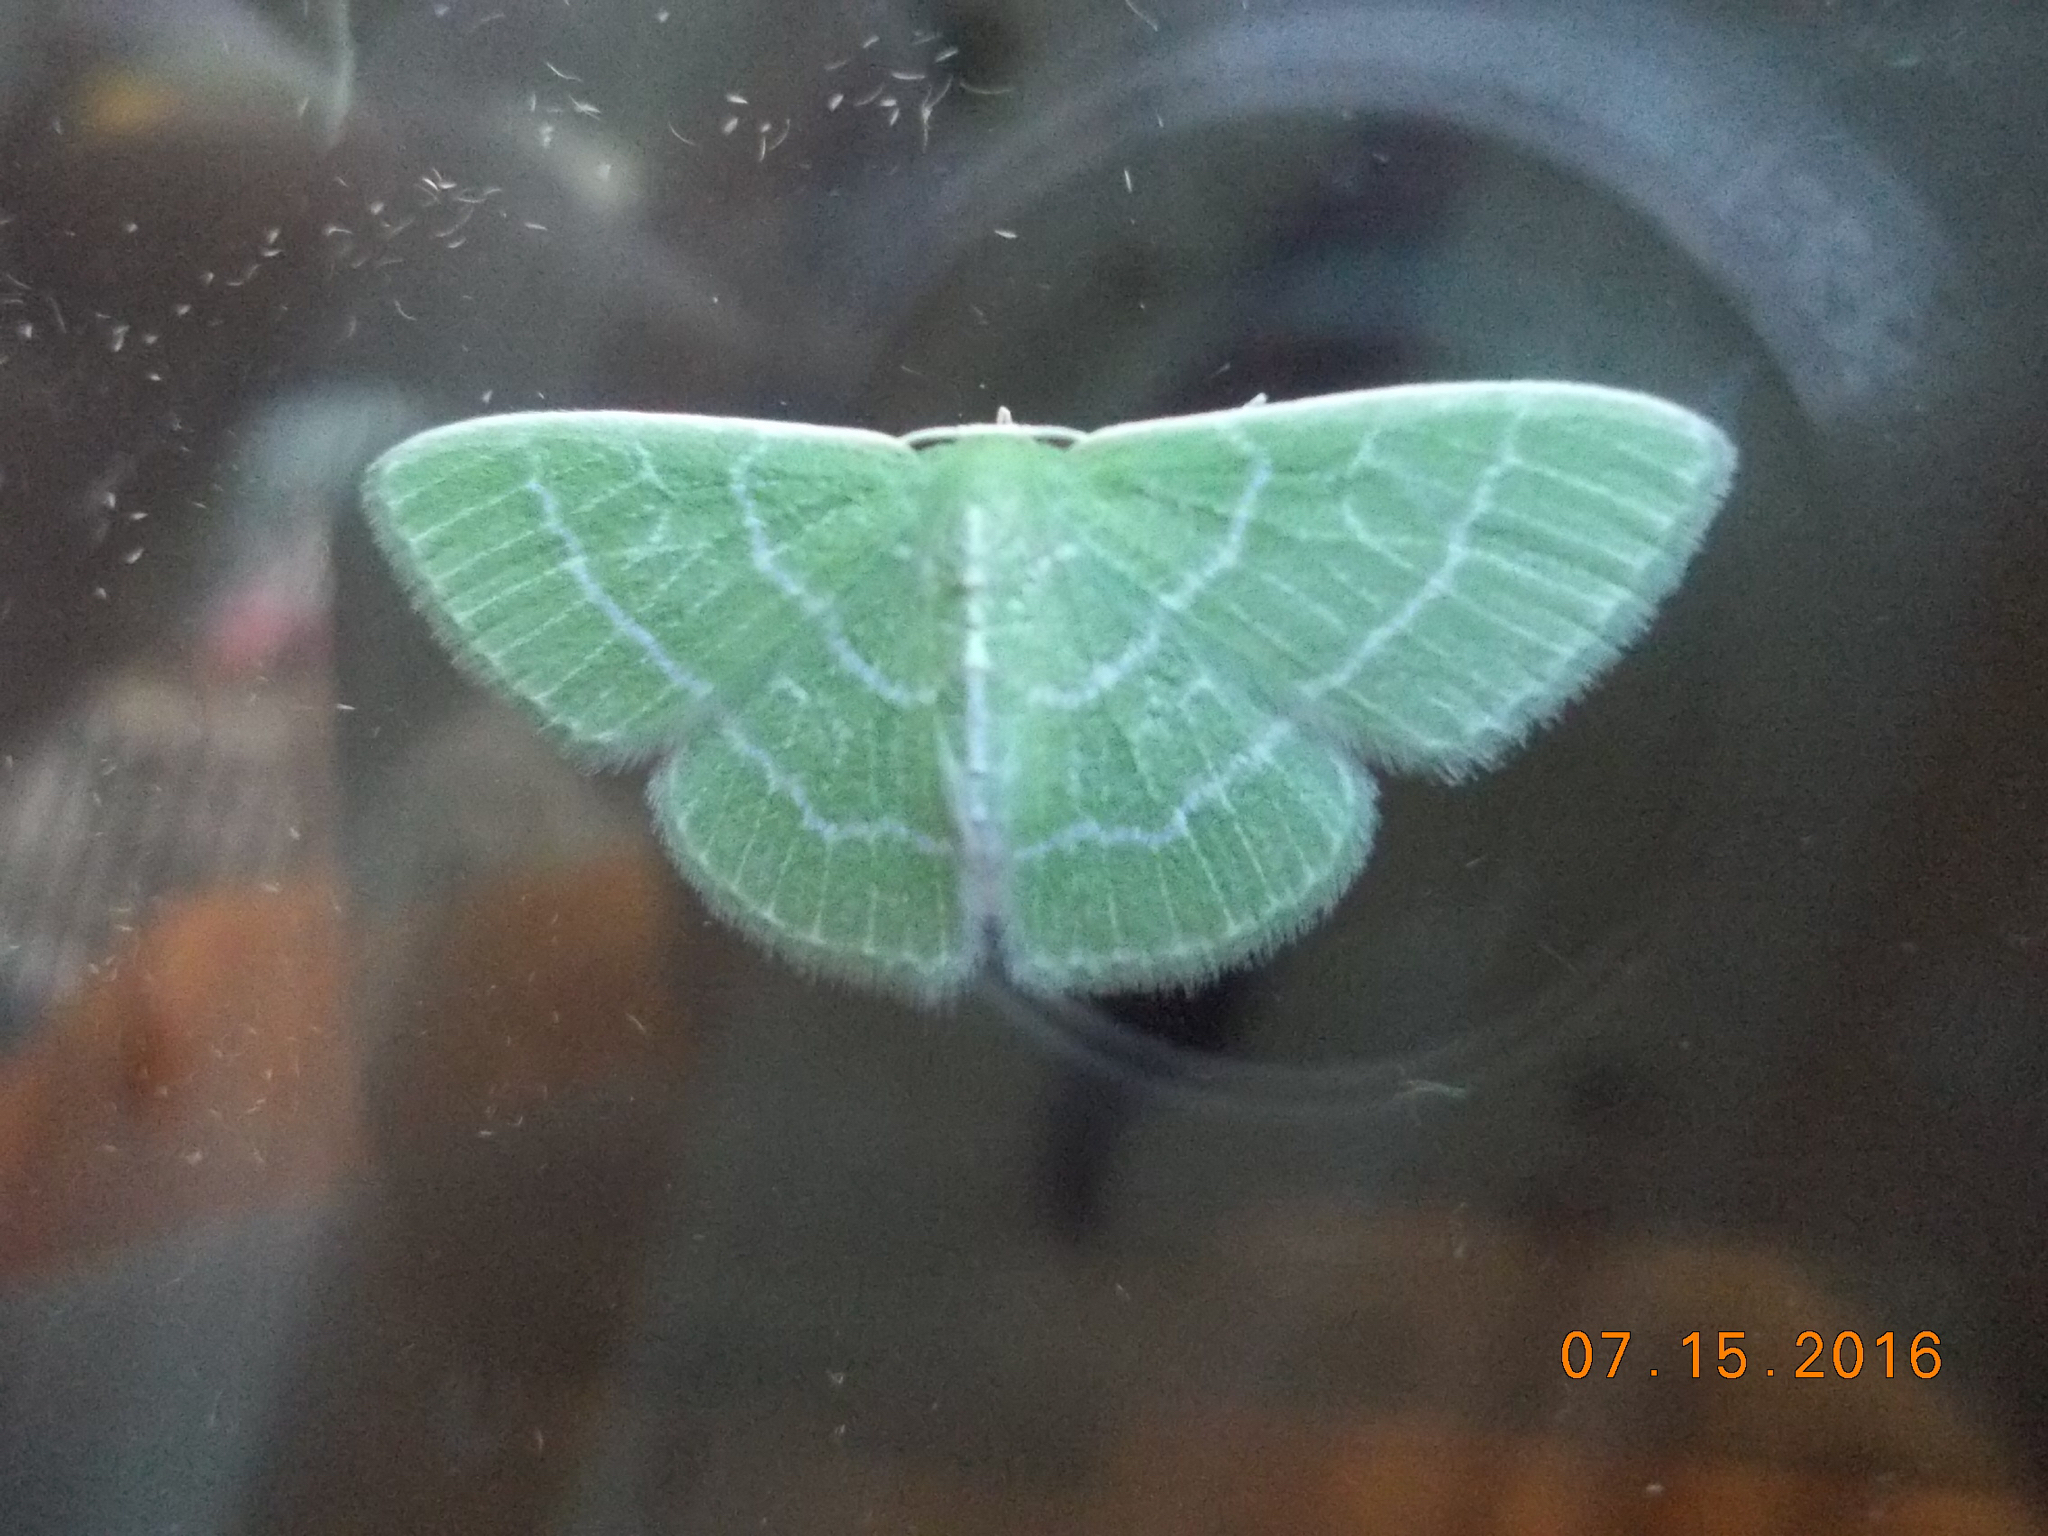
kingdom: Animalia
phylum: Arthropoda
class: Insecta
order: Lepidoptera
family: Geometridae
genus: Synchlora
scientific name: Synchlora aerata
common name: Wavy-lined emerald
